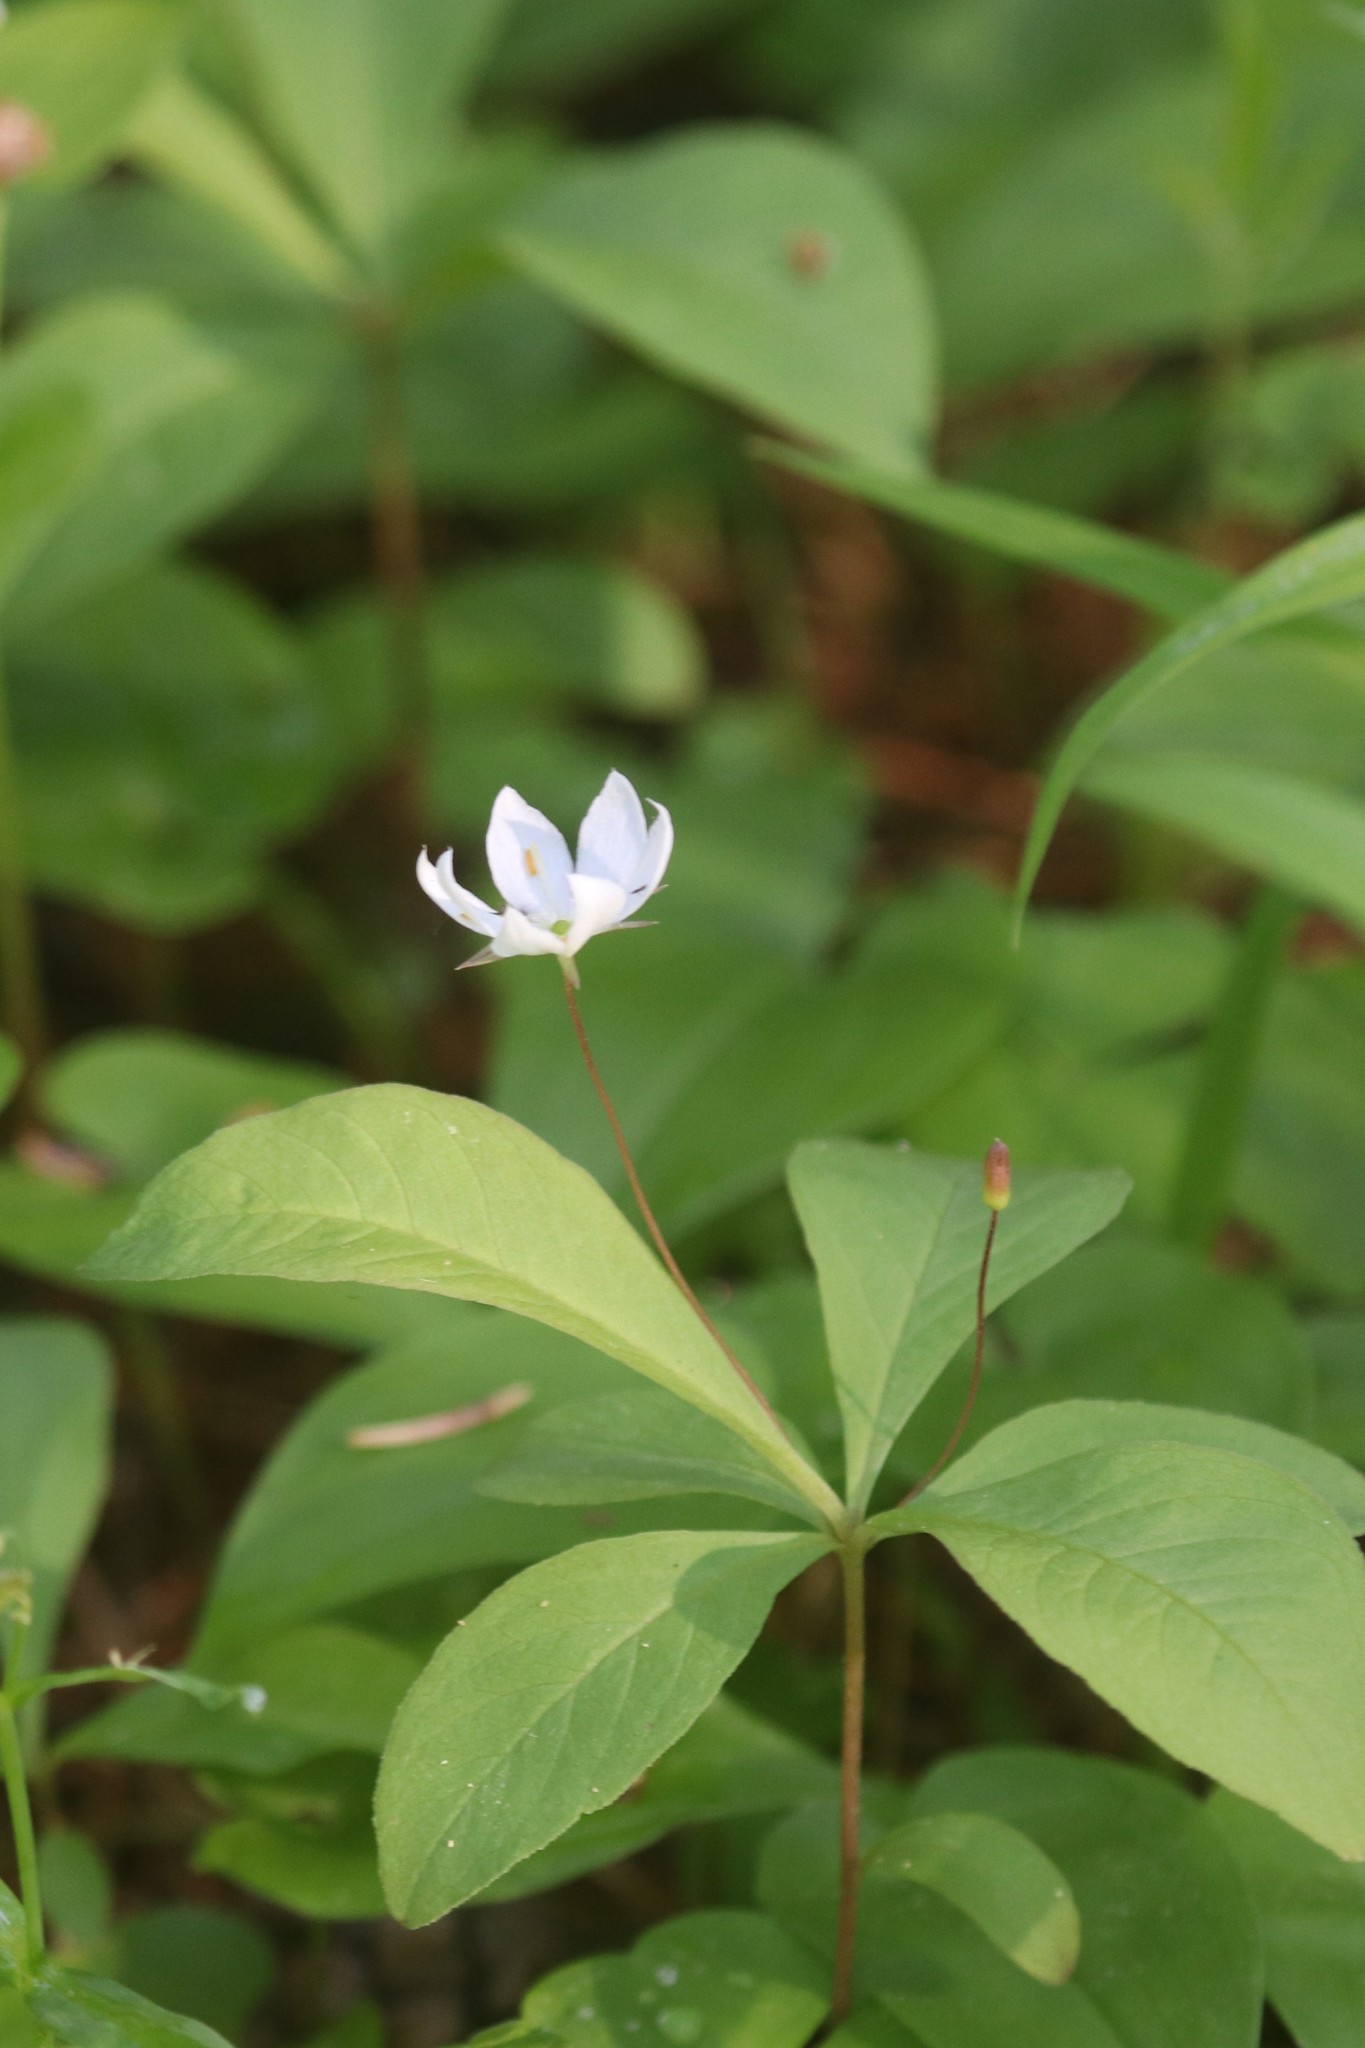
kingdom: Plantae
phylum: Tracheophyta
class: Magnoliopsida
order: Ericales
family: Primulaceae
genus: Lysimachia
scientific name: Lysimachia europaea
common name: Arctic starflower
